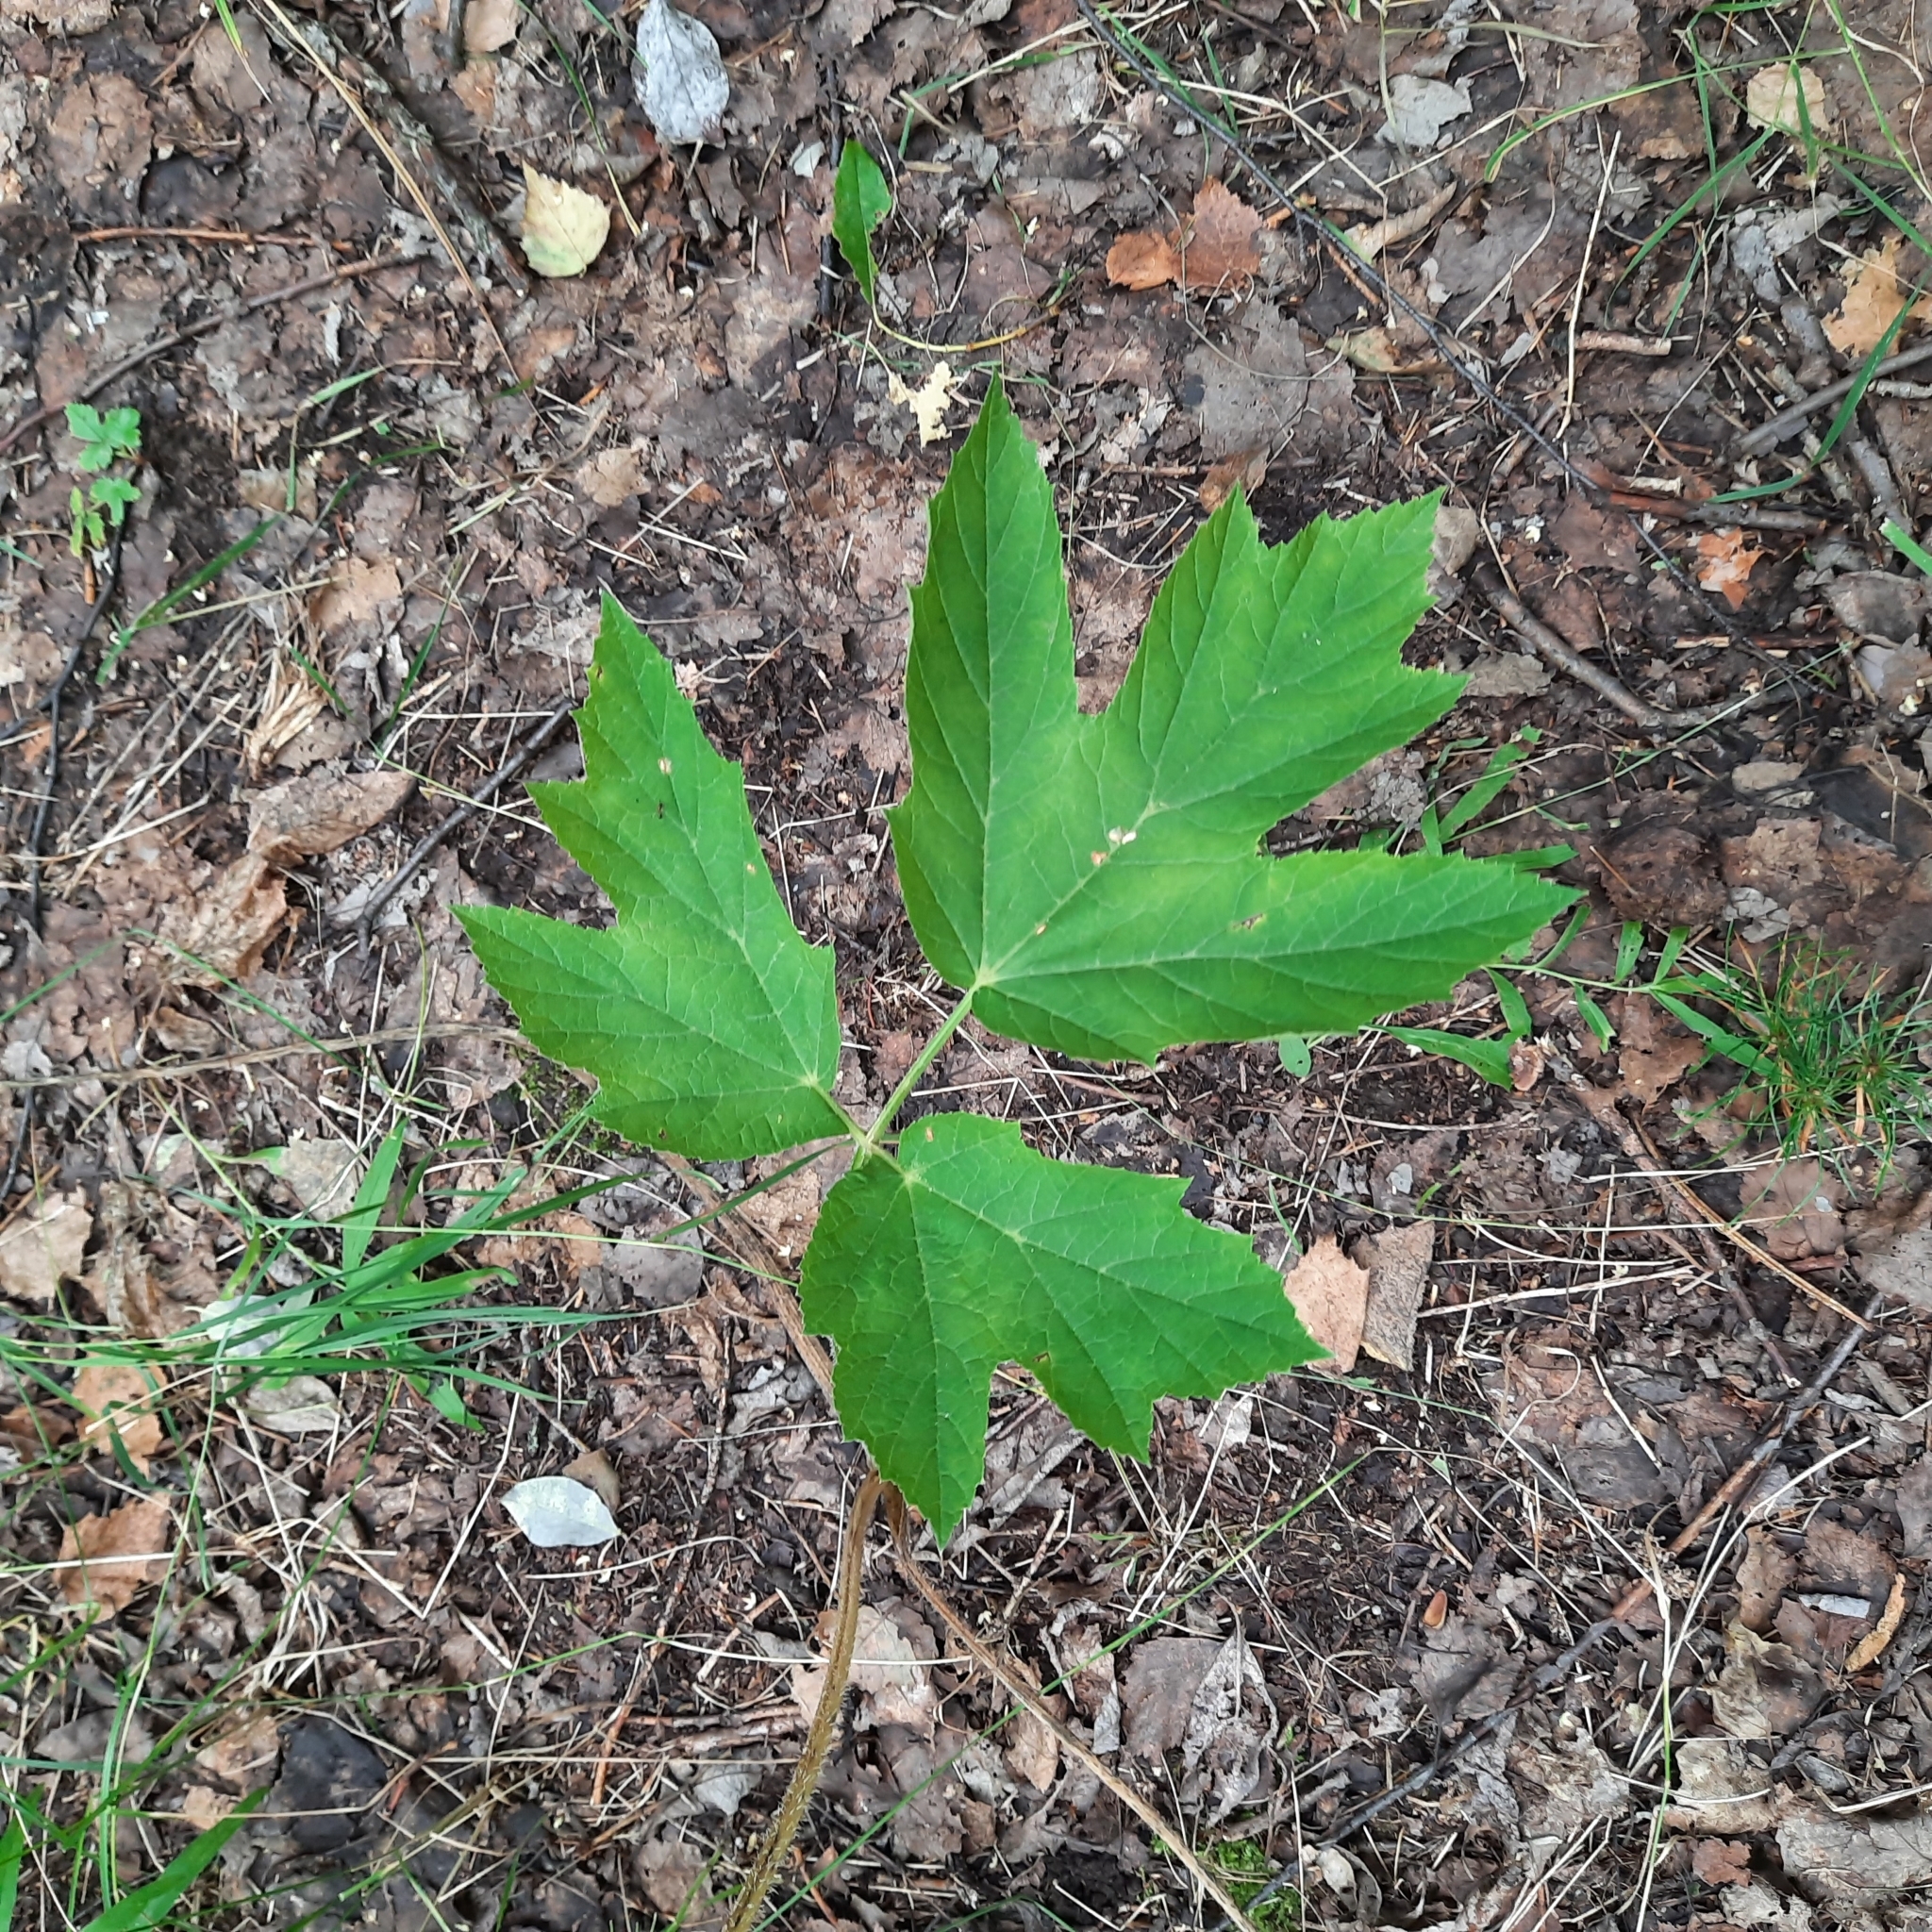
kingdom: Plantae
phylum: Tracheophyta
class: Magnoliopsida
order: Apiales
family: Apiaceae
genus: Heracleum
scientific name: Heracleum dissectum
